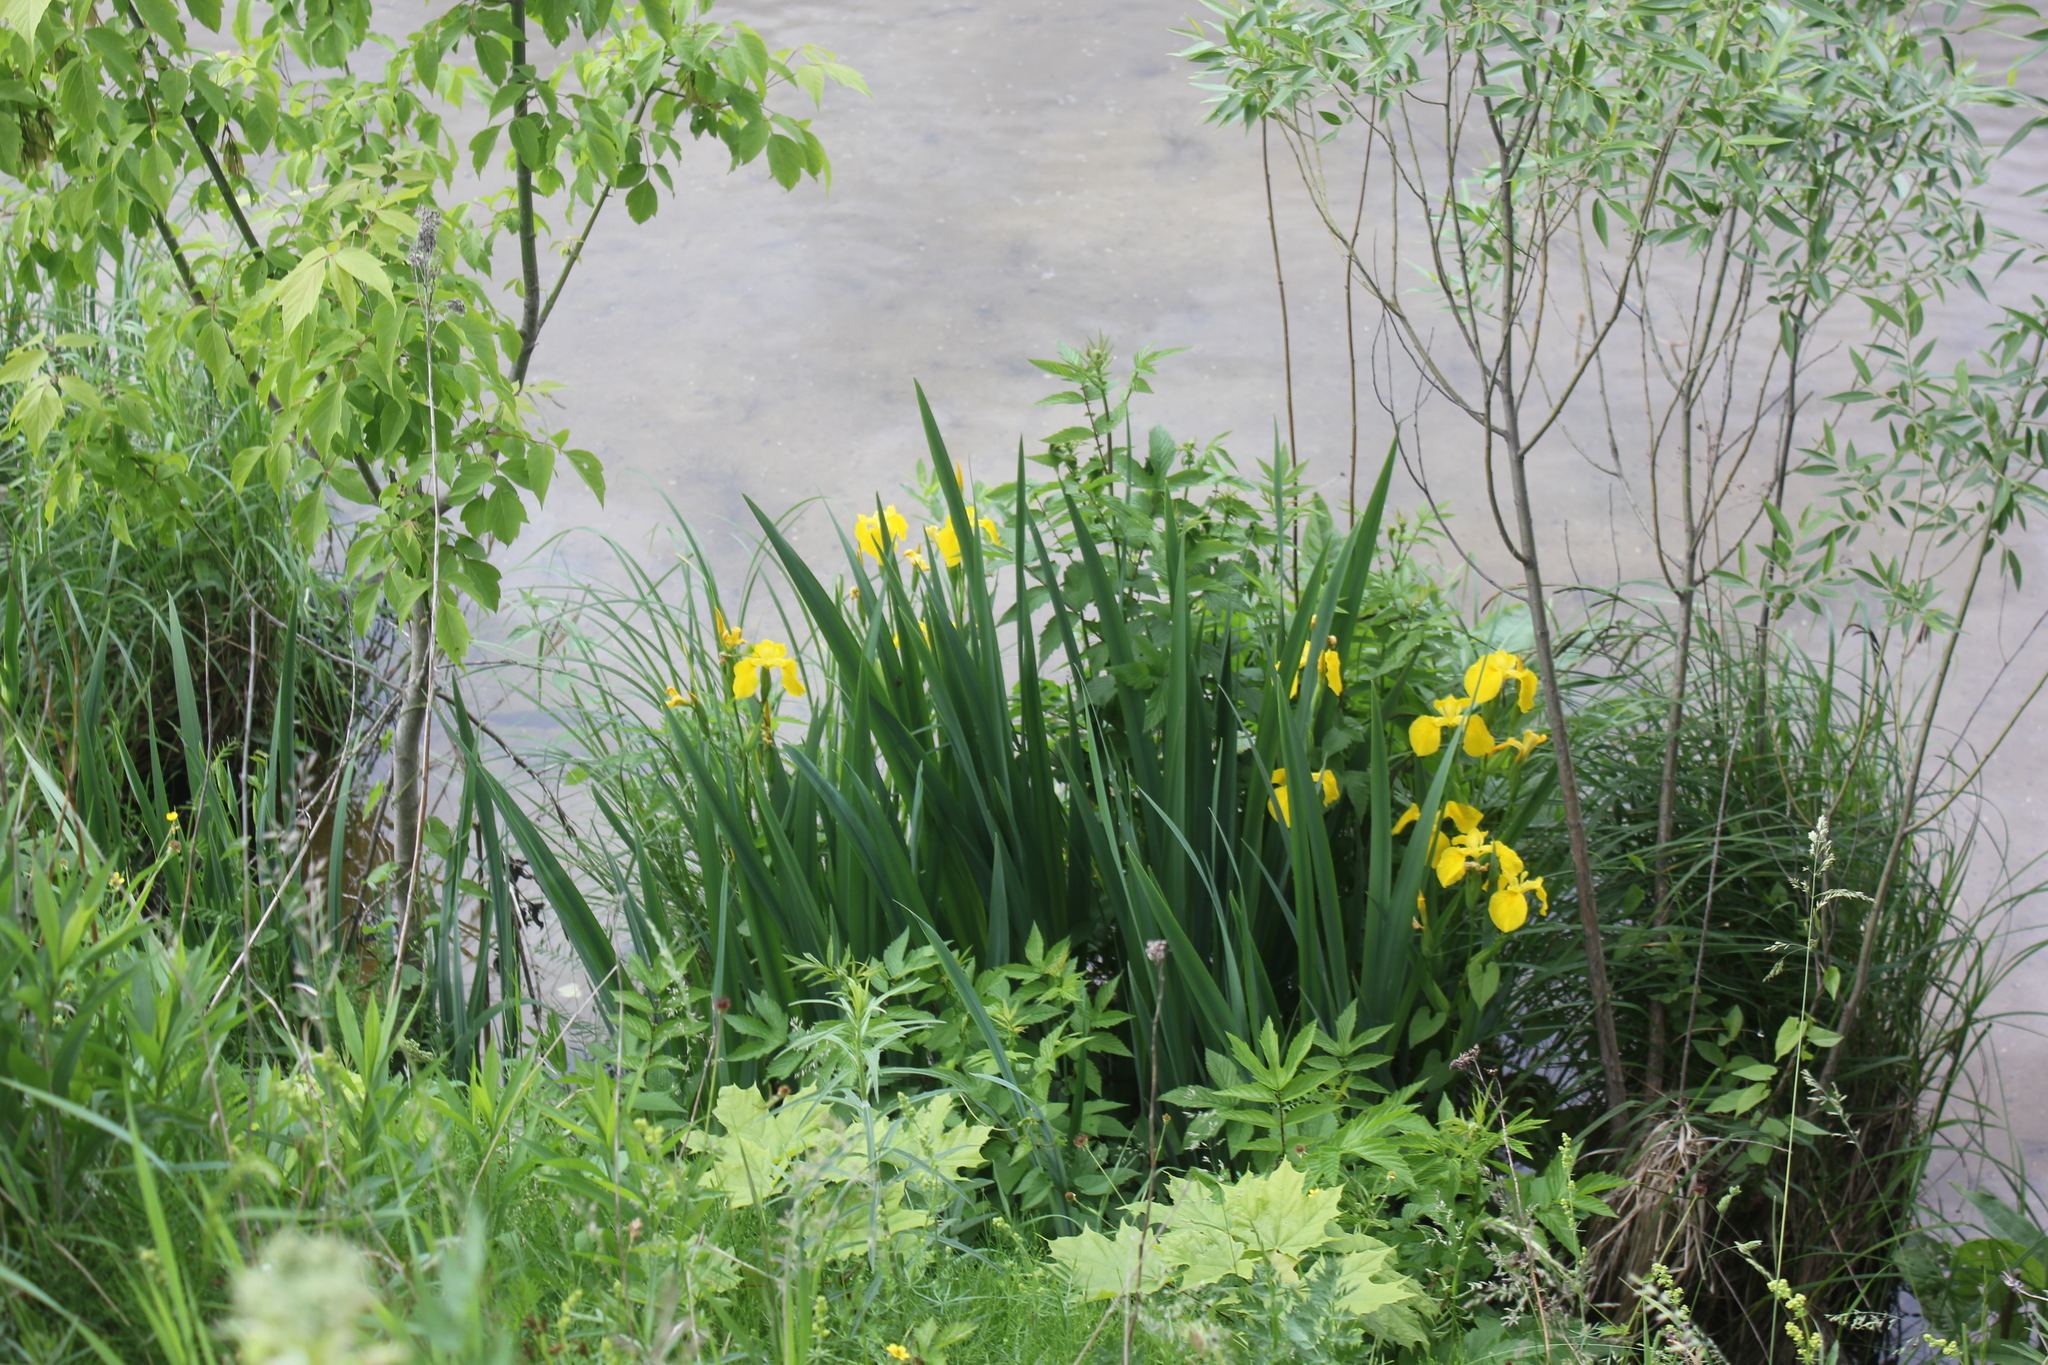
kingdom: Plantae
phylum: Tracheophyta
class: Liliopsida
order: Asparagales
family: Iridaceae
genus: Iris
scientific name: Iris pseudacorus
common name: Yellow flag
